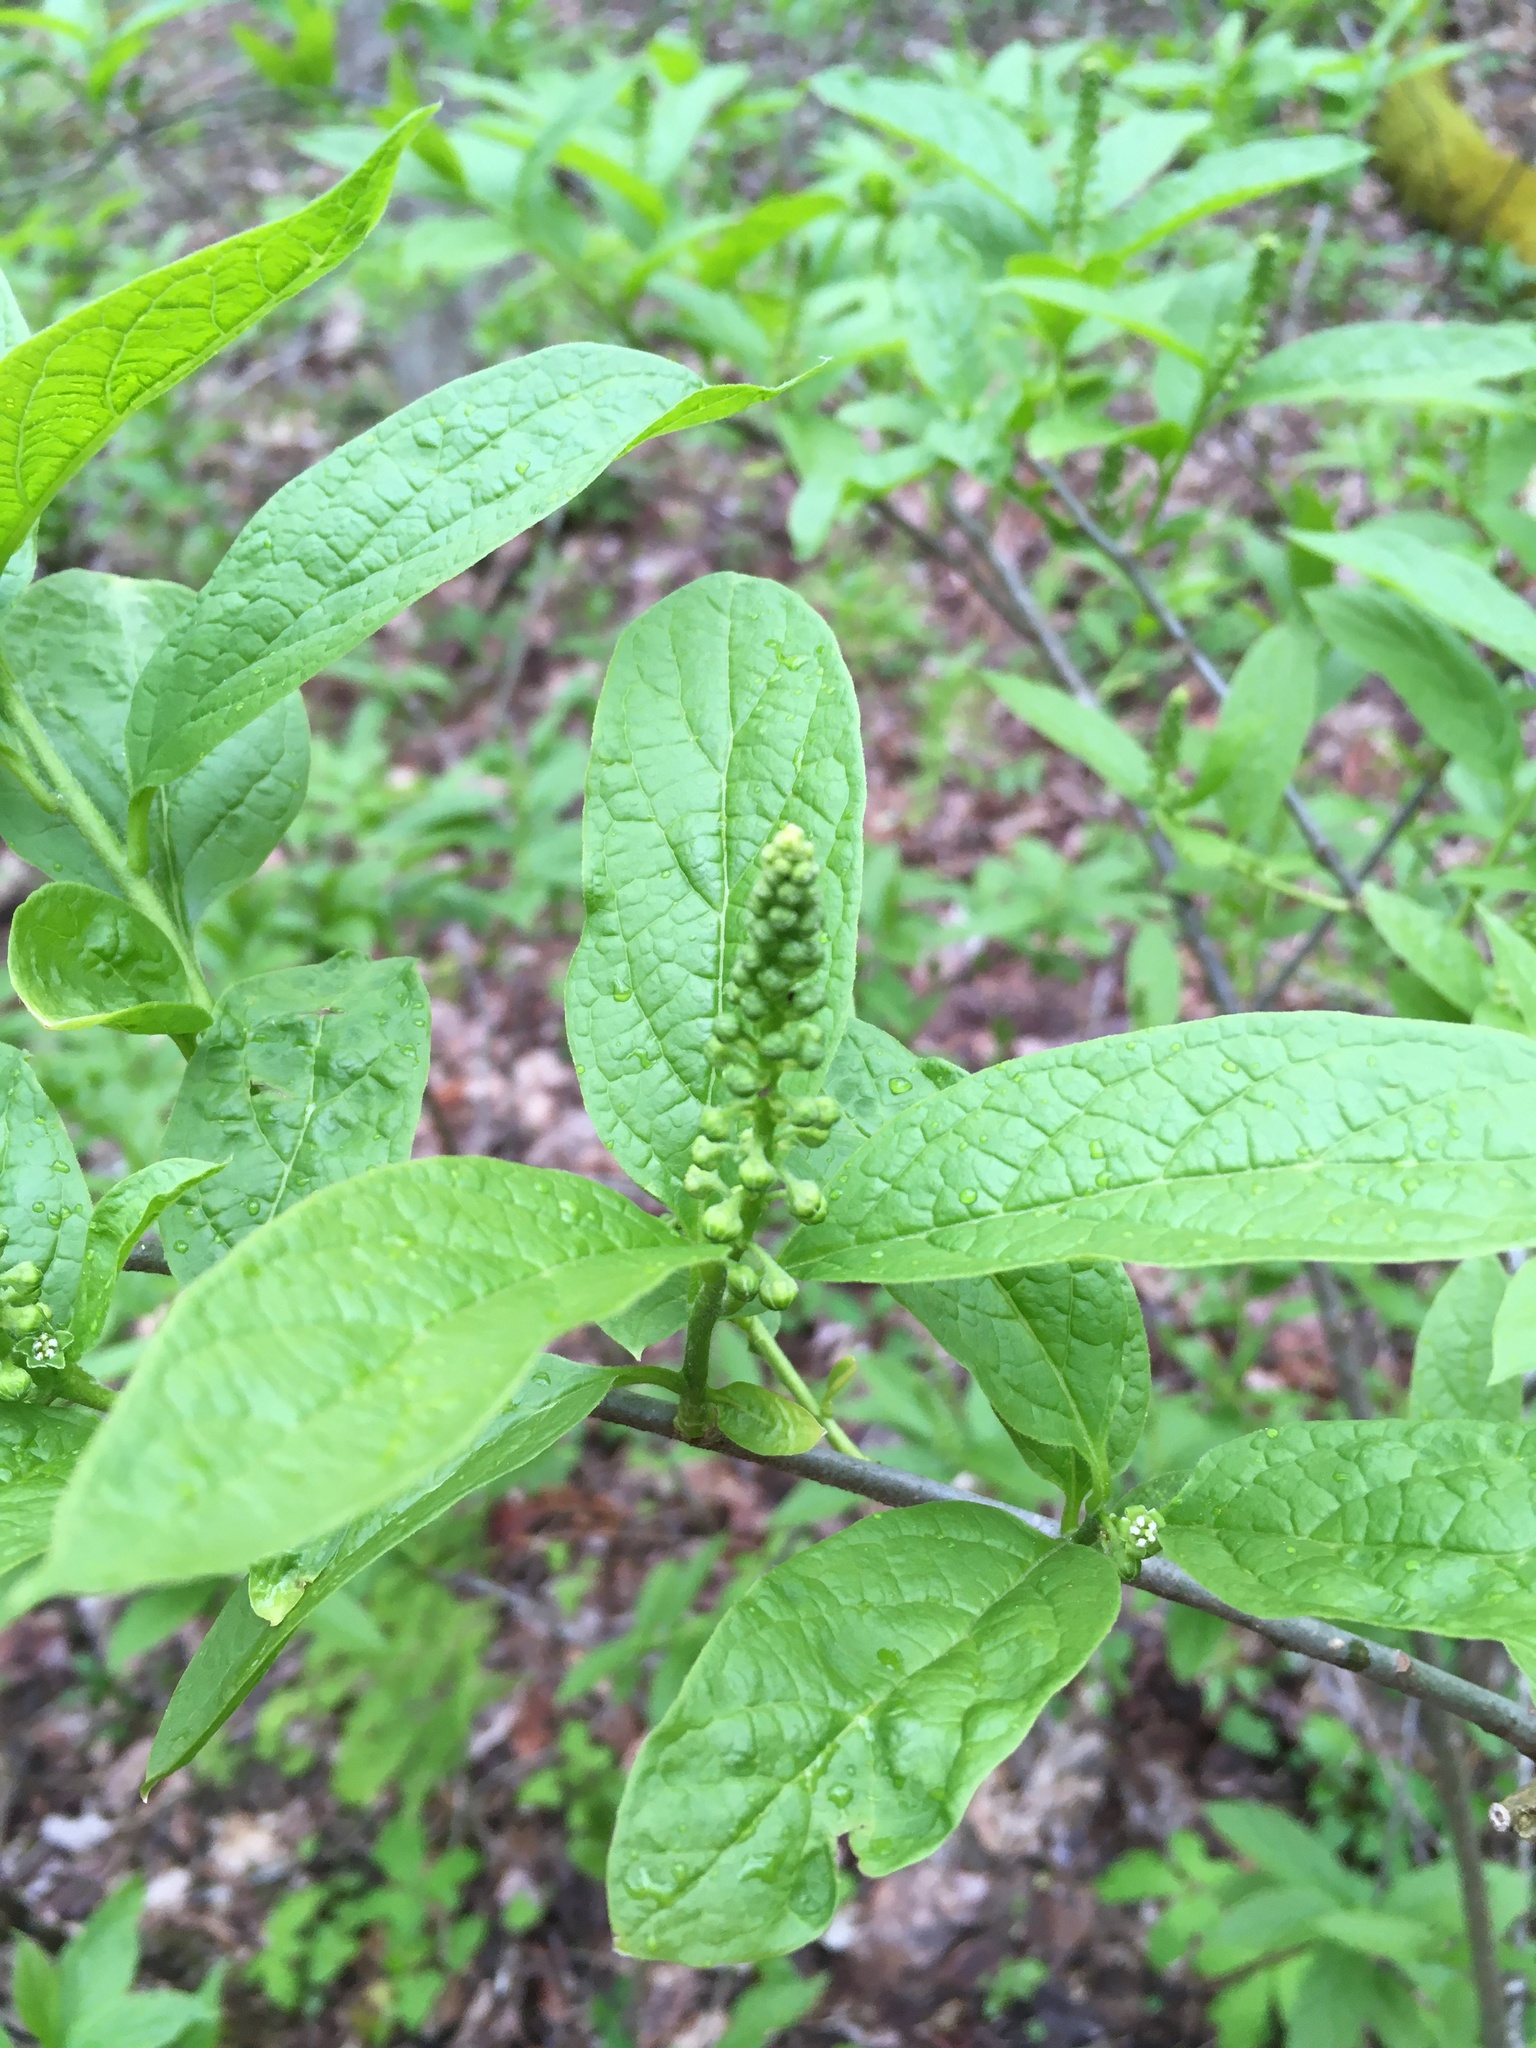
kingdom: Plantae
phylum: Tracheophyta
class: Magnoliopsida
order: Santalales
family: Cervantesiaceae
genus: Pyrularia
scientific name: Pyrularia pubera
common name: Oilnut
